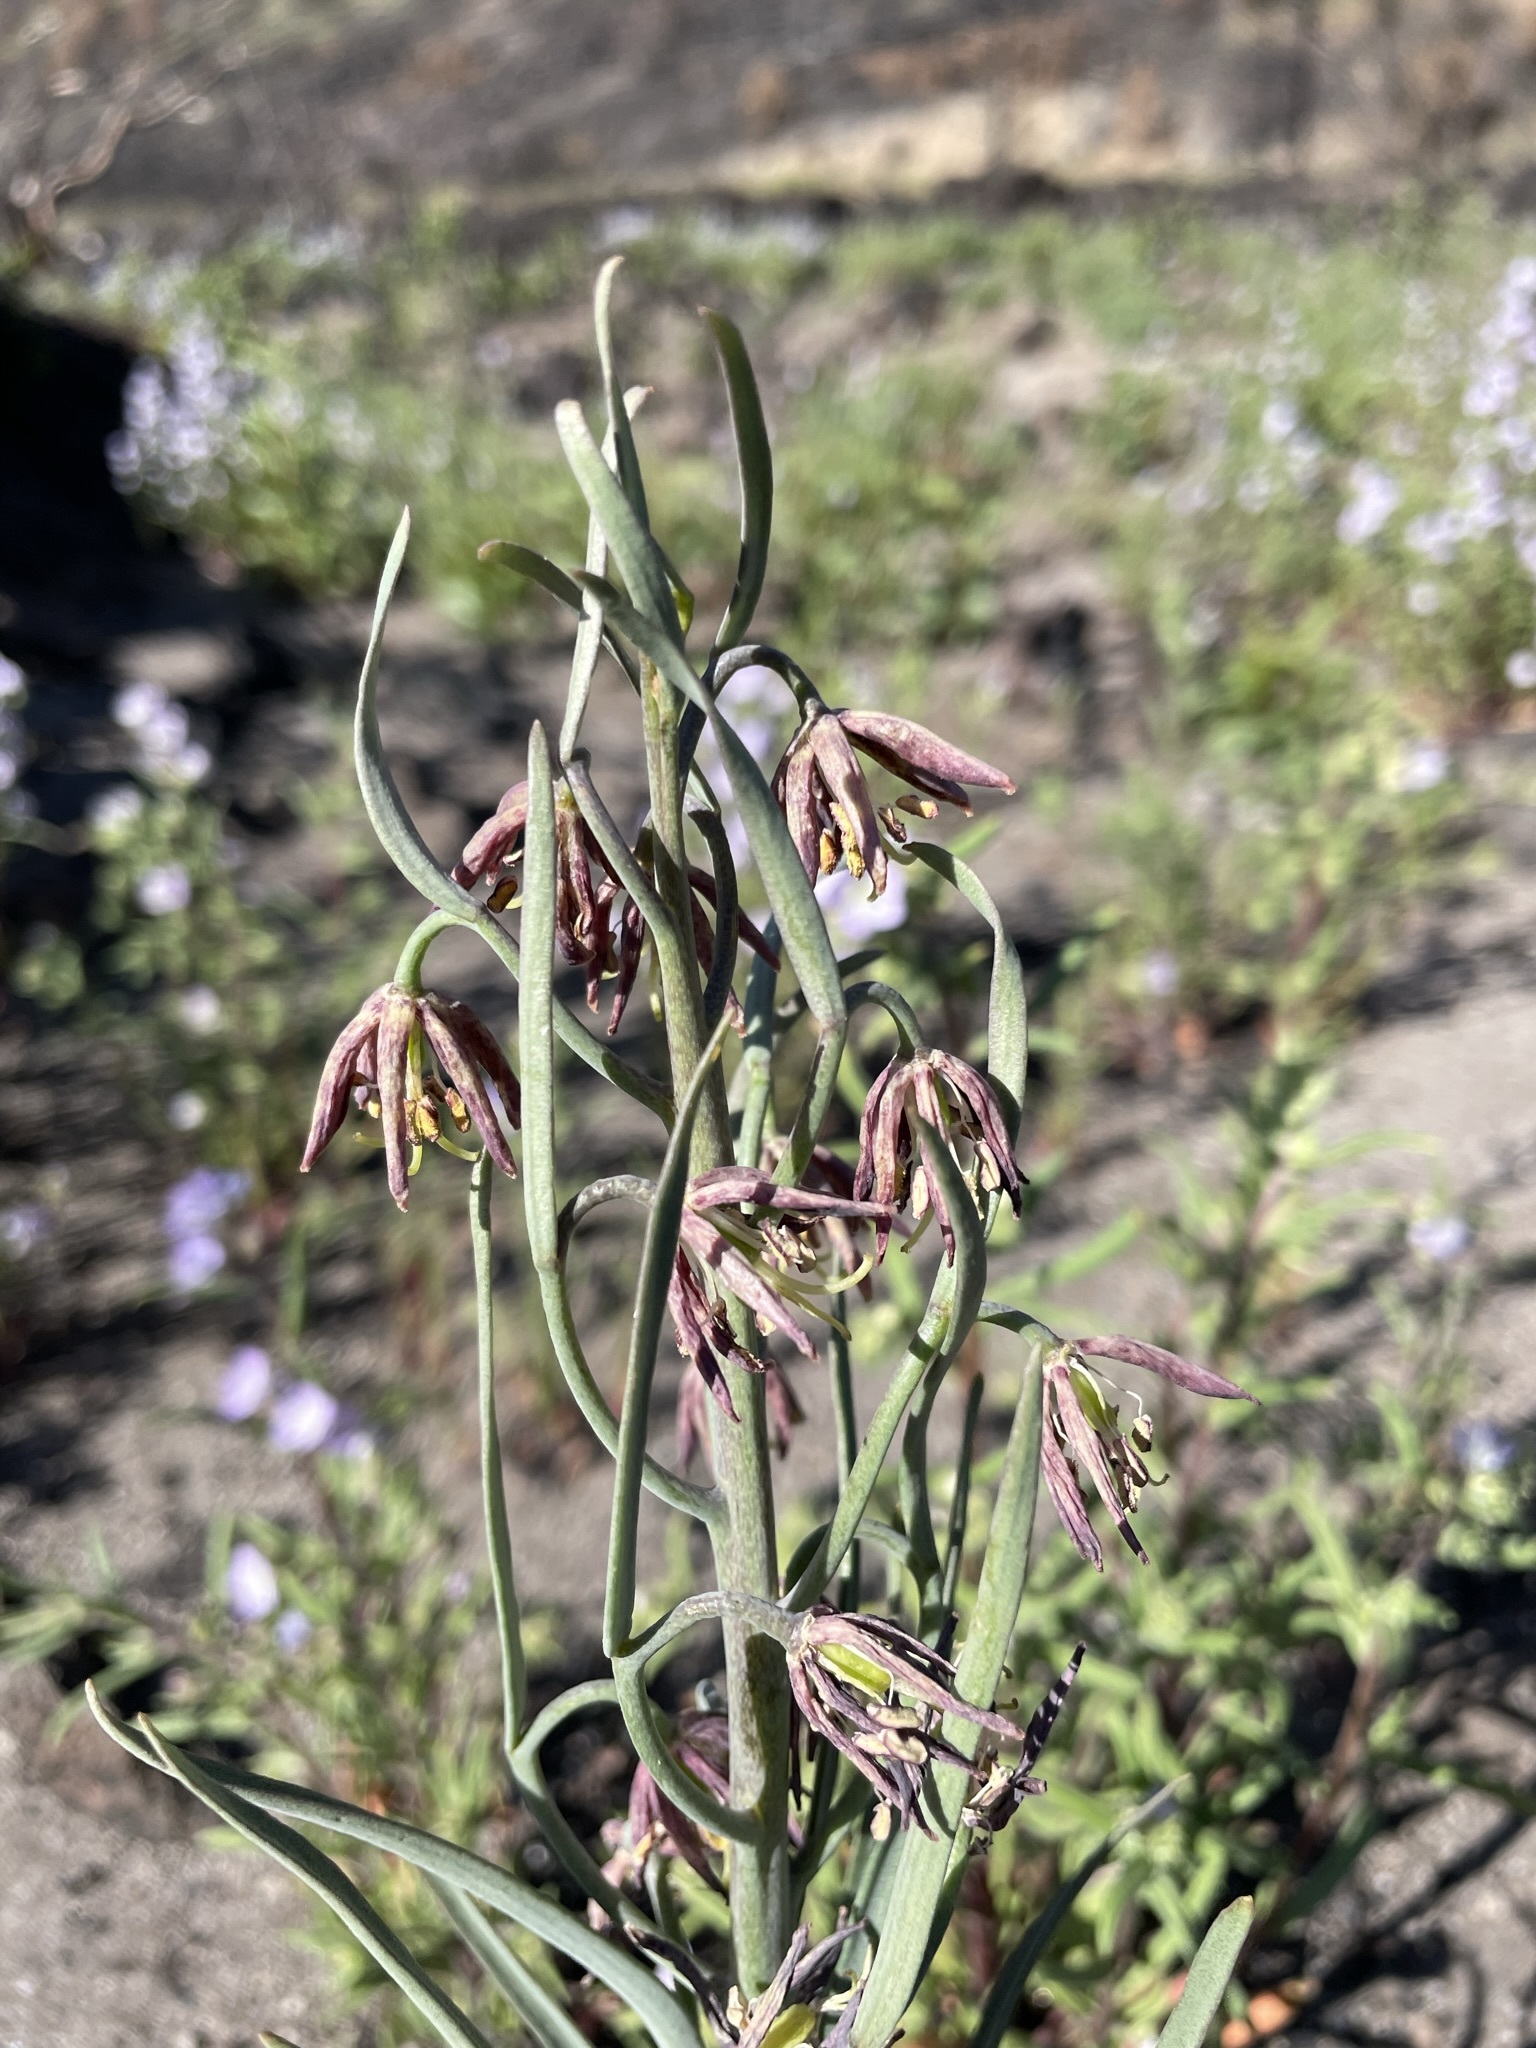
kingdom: Plantae
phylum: Tracheophyta
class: Liliopsida
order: Liliales
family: Liliaceae
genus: Fritillaria
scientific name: Fritillaria atropurpurea
